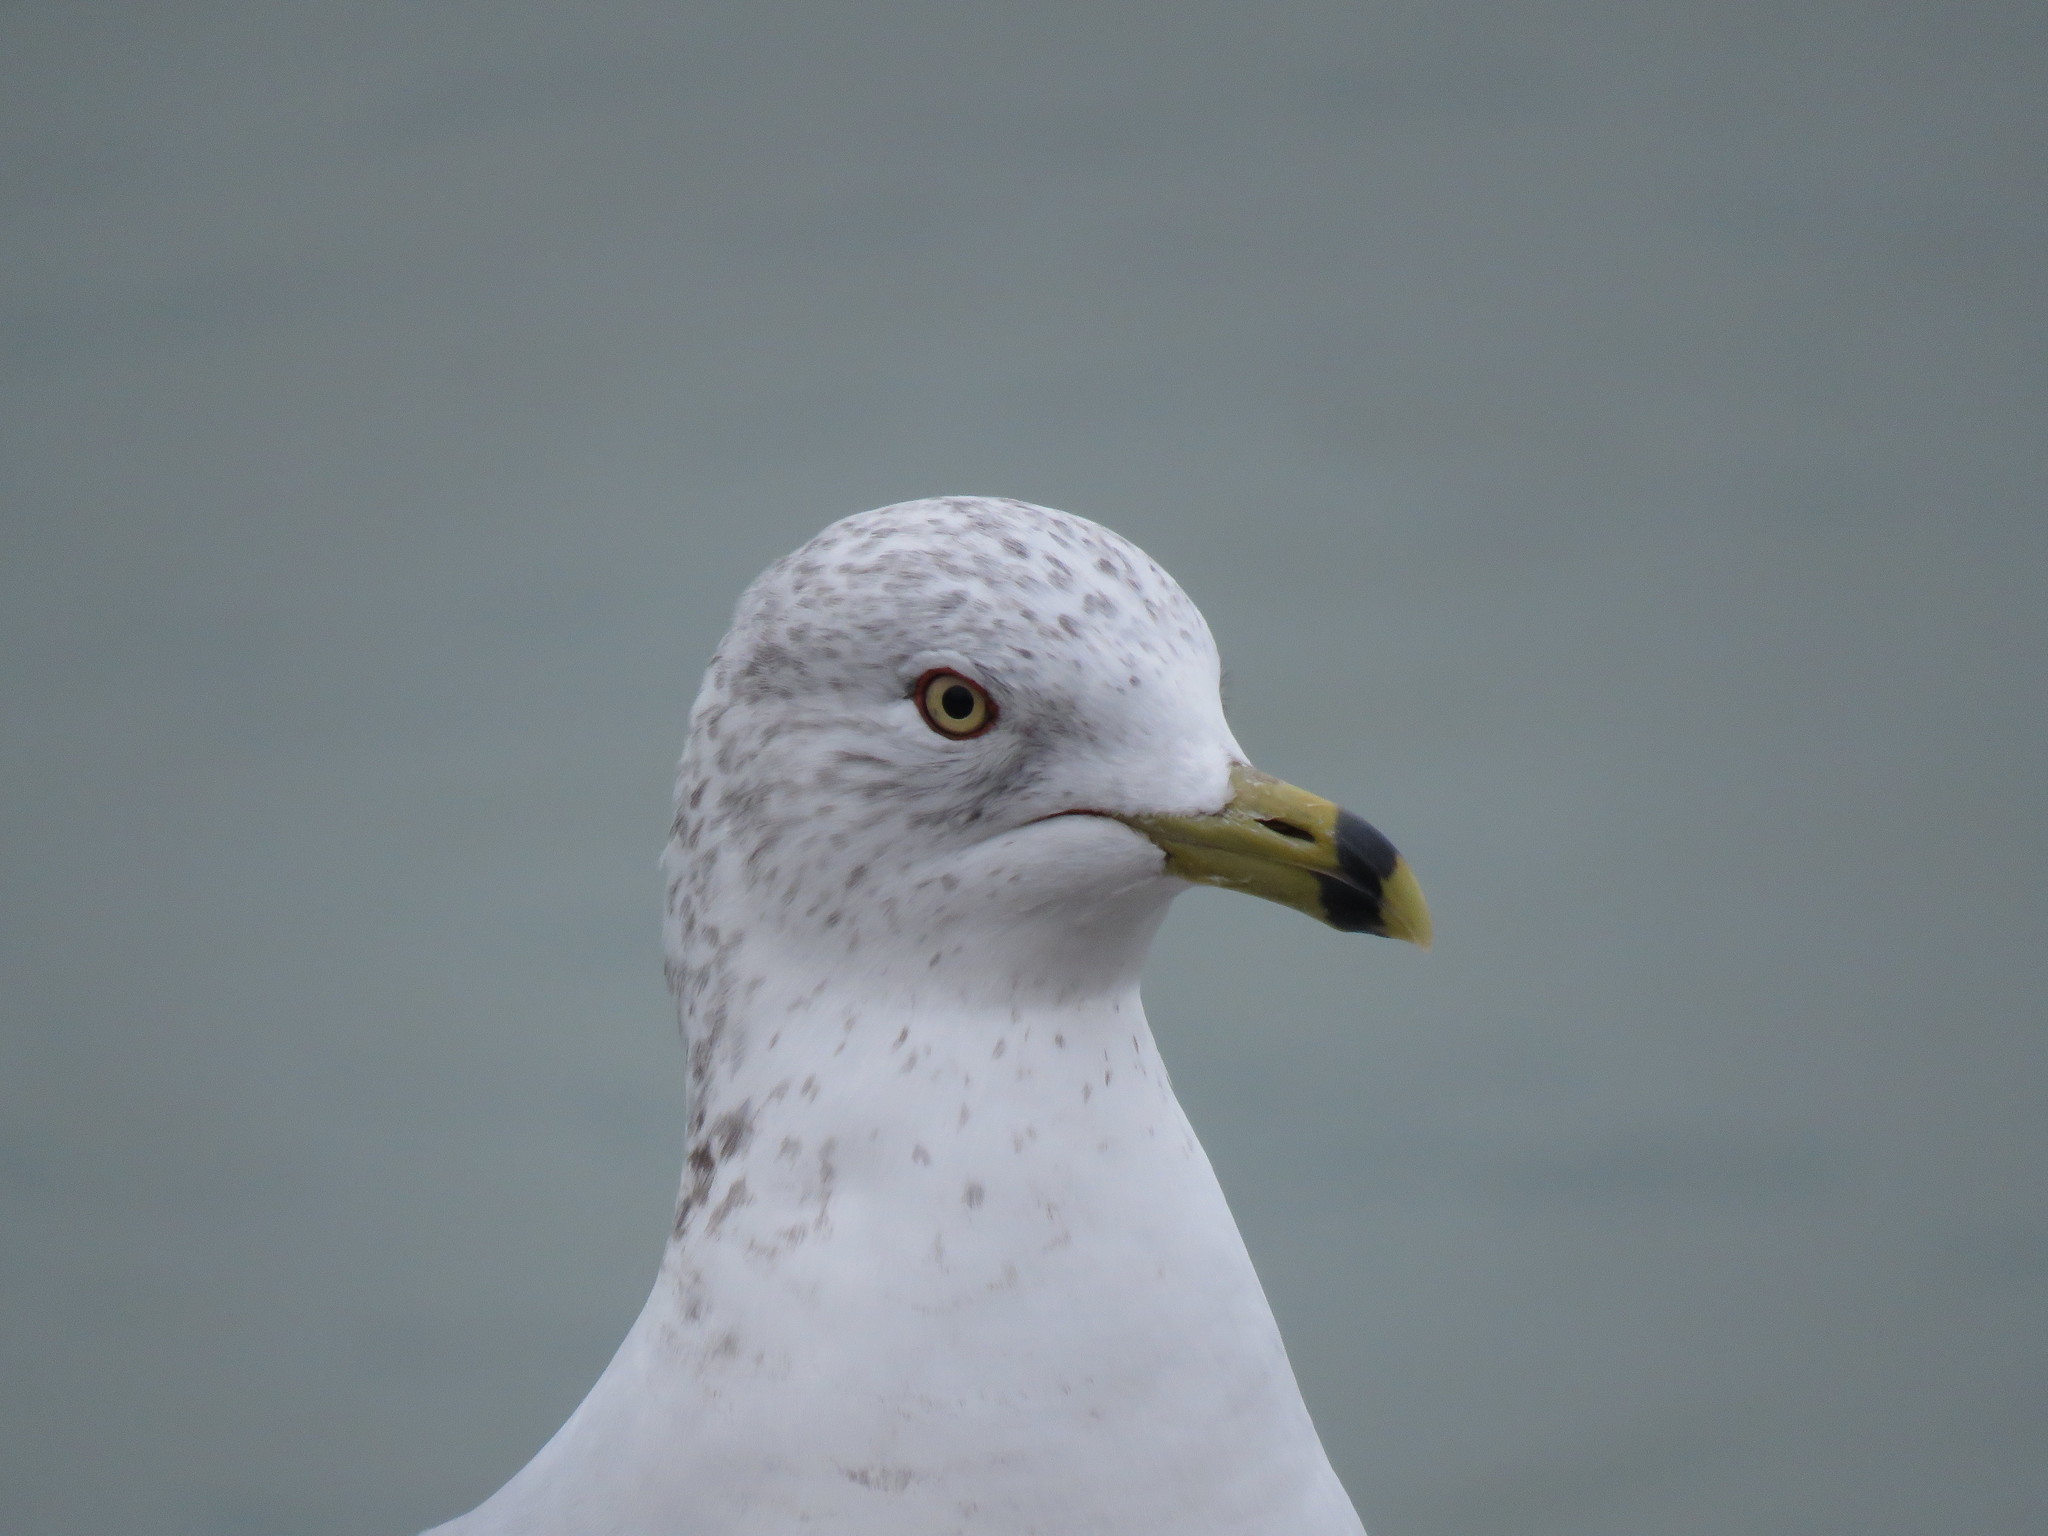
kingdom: Animalia
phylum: Chordata
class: Aves
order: Charadriiformes
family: Laridae
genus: Larus
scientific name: Larus delawarensis
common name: Ring-billed gull
